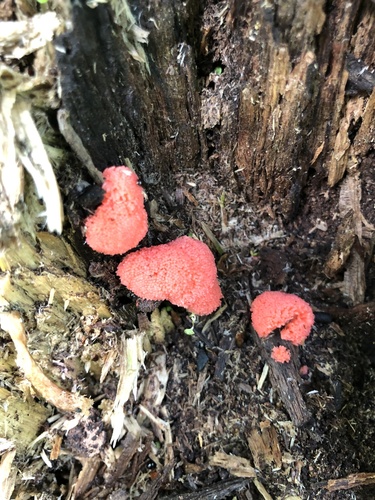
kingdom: Protozoa
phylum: Mycetozoa
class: Myxomycetes
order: Cribrariales
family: Tubiferaceae
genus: Tubifera
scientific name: Tubifera ferruginosa
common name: Red raspberry slime mold
